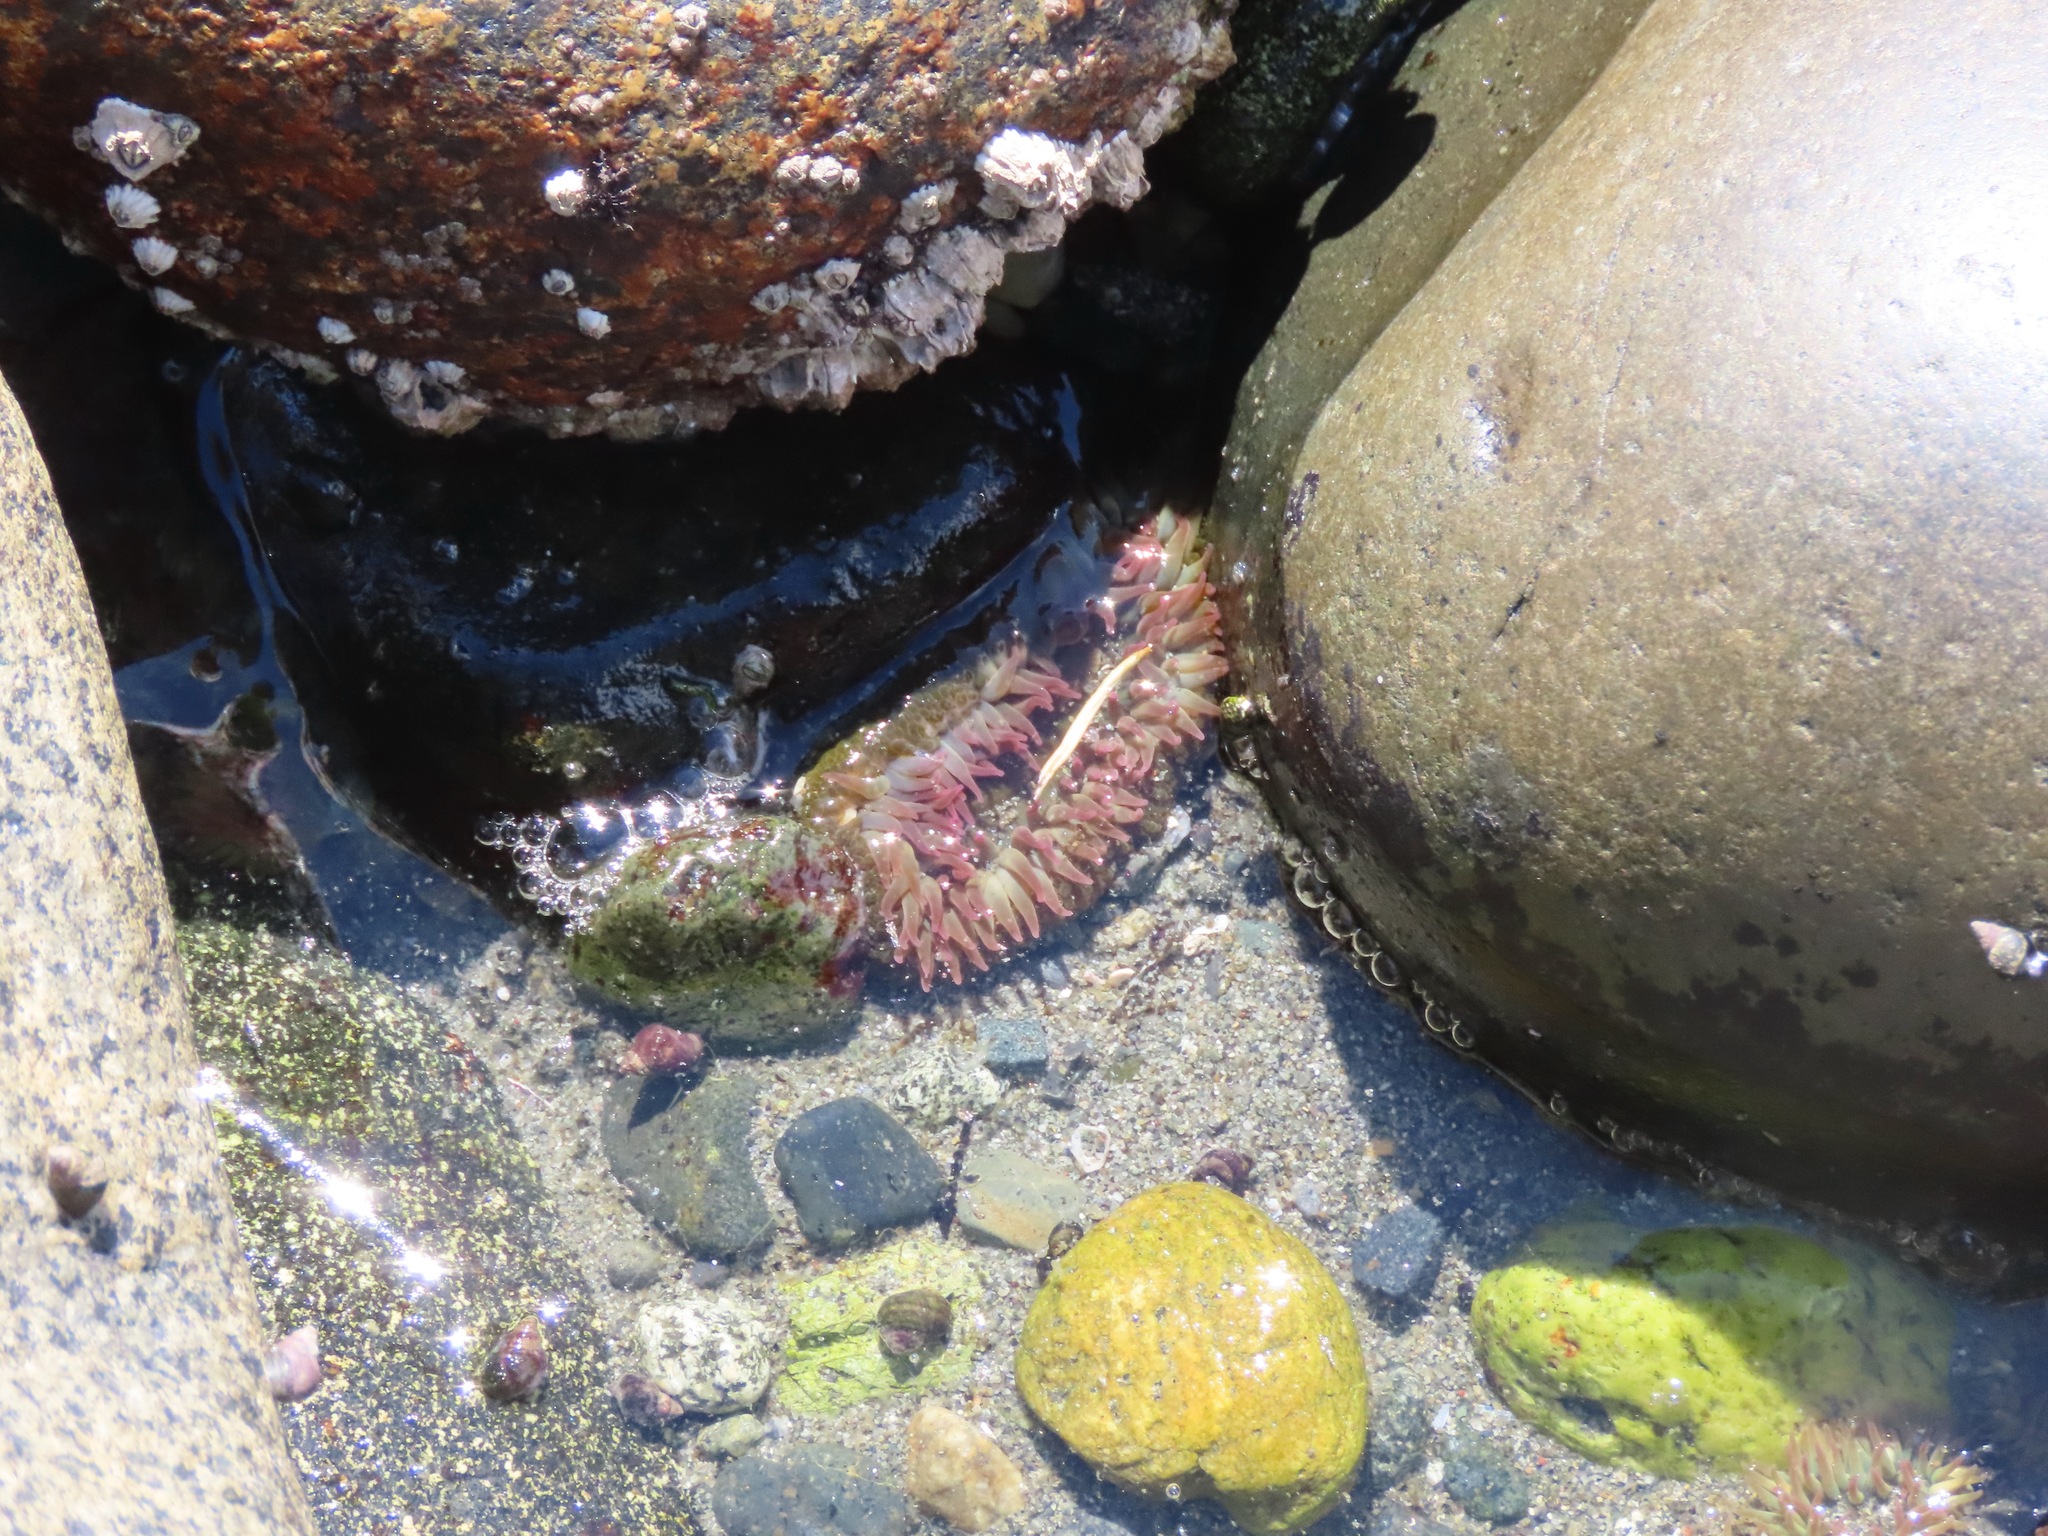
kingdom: Animalia
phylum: Cnidaria
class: Anthozoa
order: Actiniaria
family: Actiniidae
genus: Anthopleura
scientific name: Anthopleura elegantissima
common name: Clonal anemone
